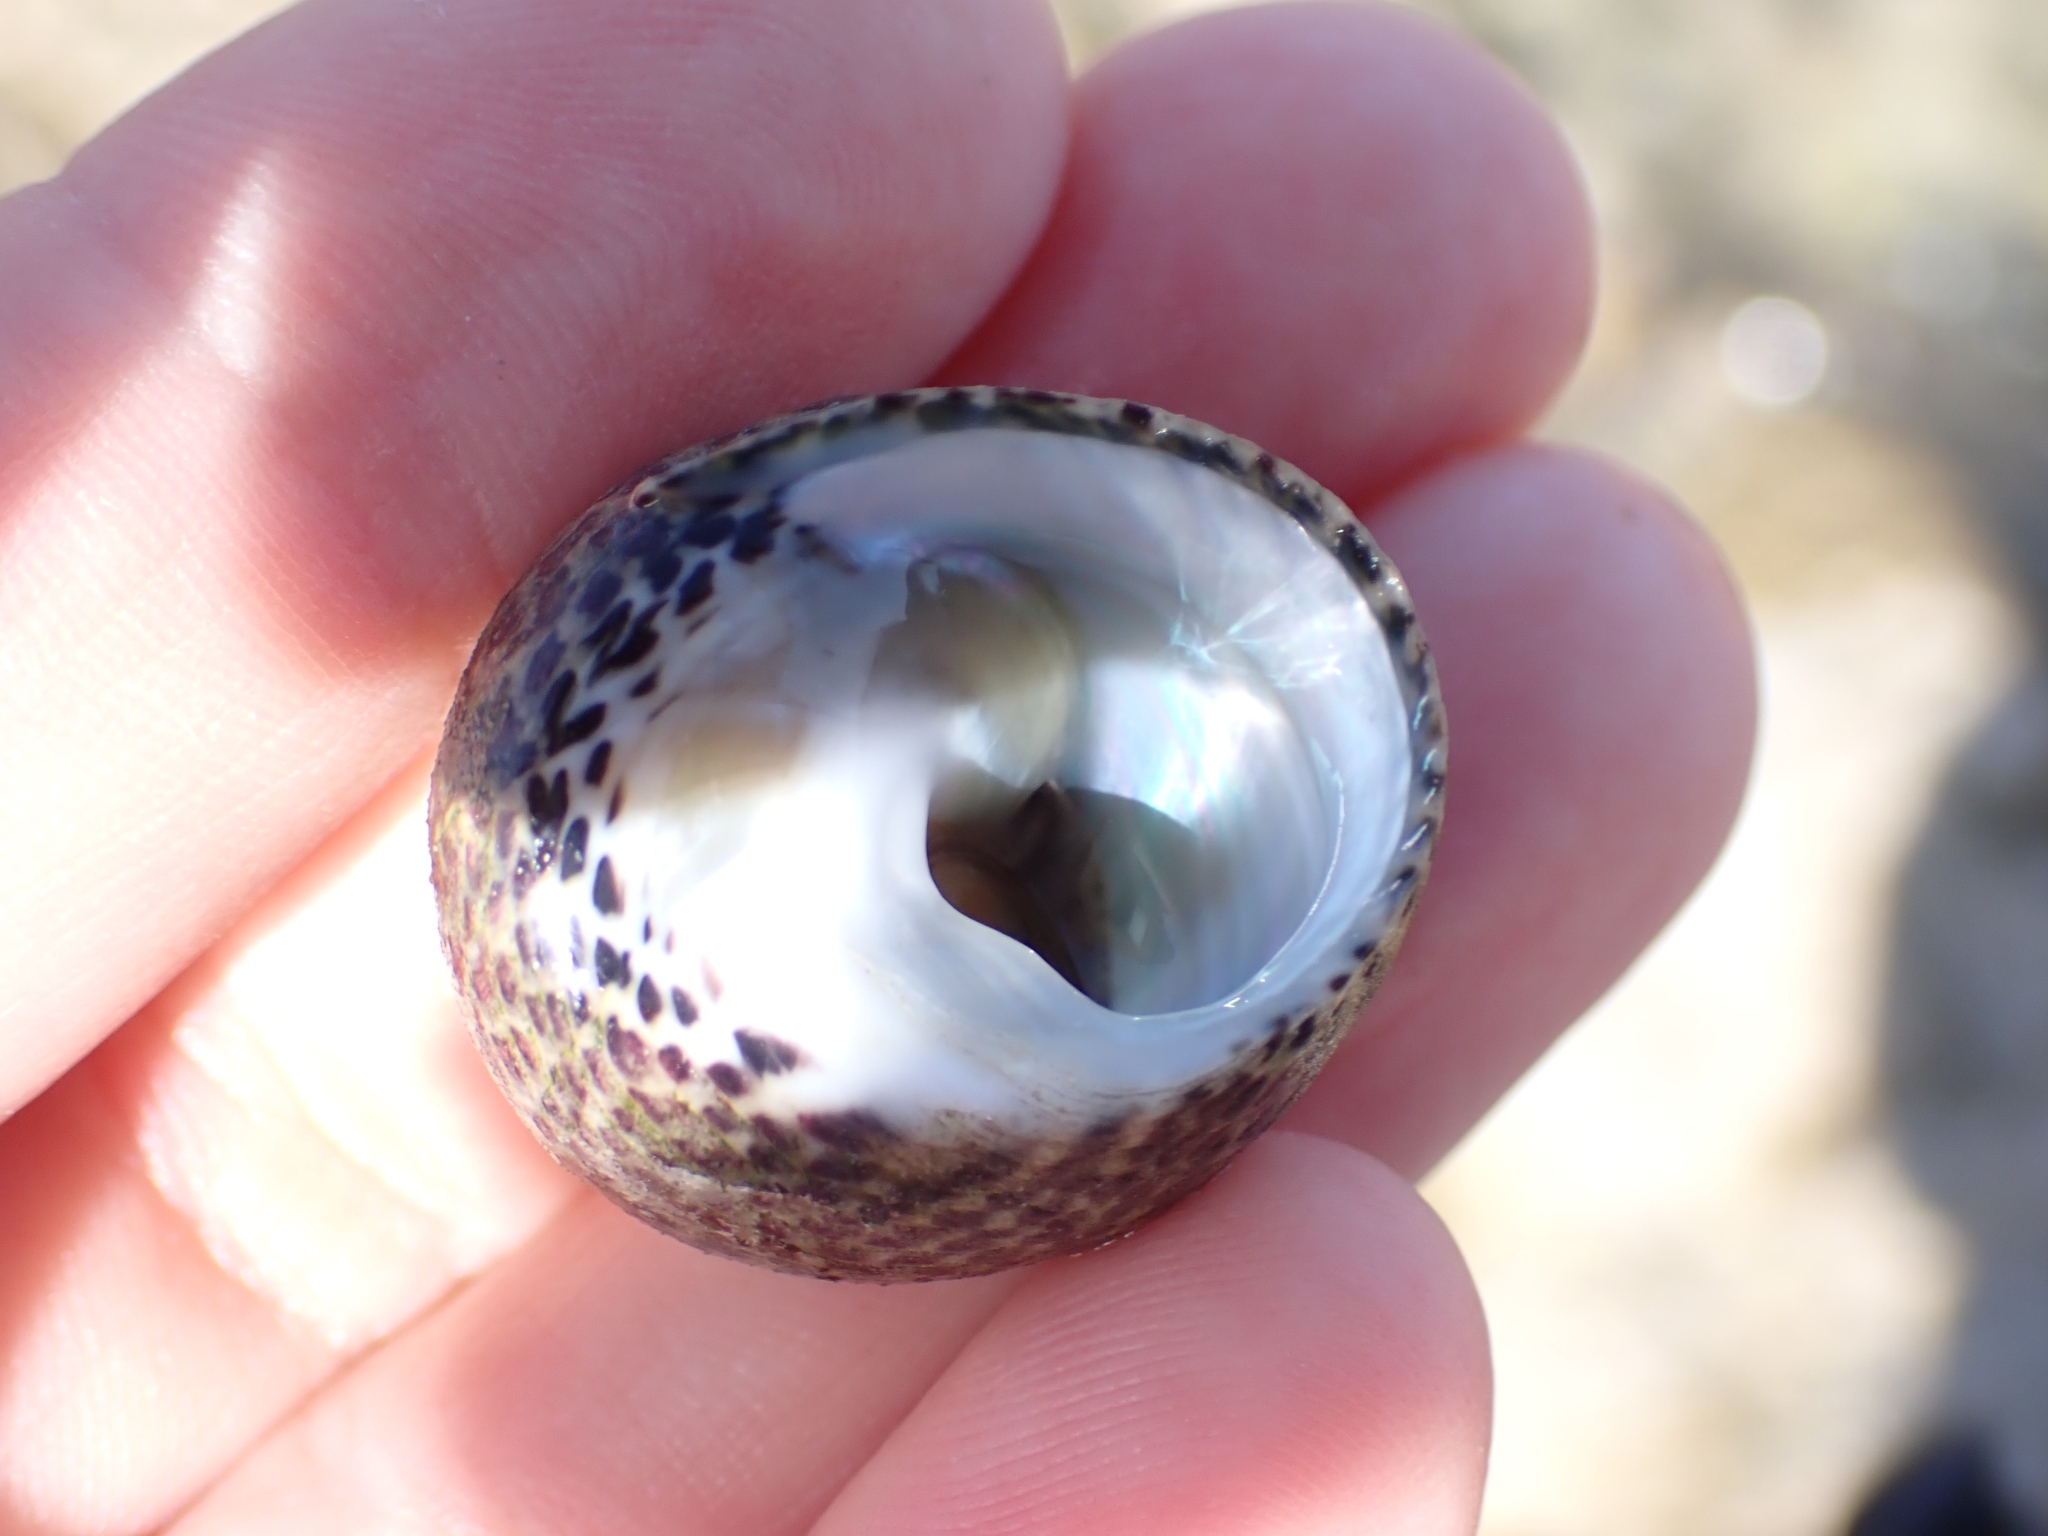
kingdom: Animalia
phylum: Mollusca
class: Gastropoda
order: Trochida
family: Trochidae
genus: Phorcus
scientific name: Phorcus turbinatus
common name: Turbinate monodont
